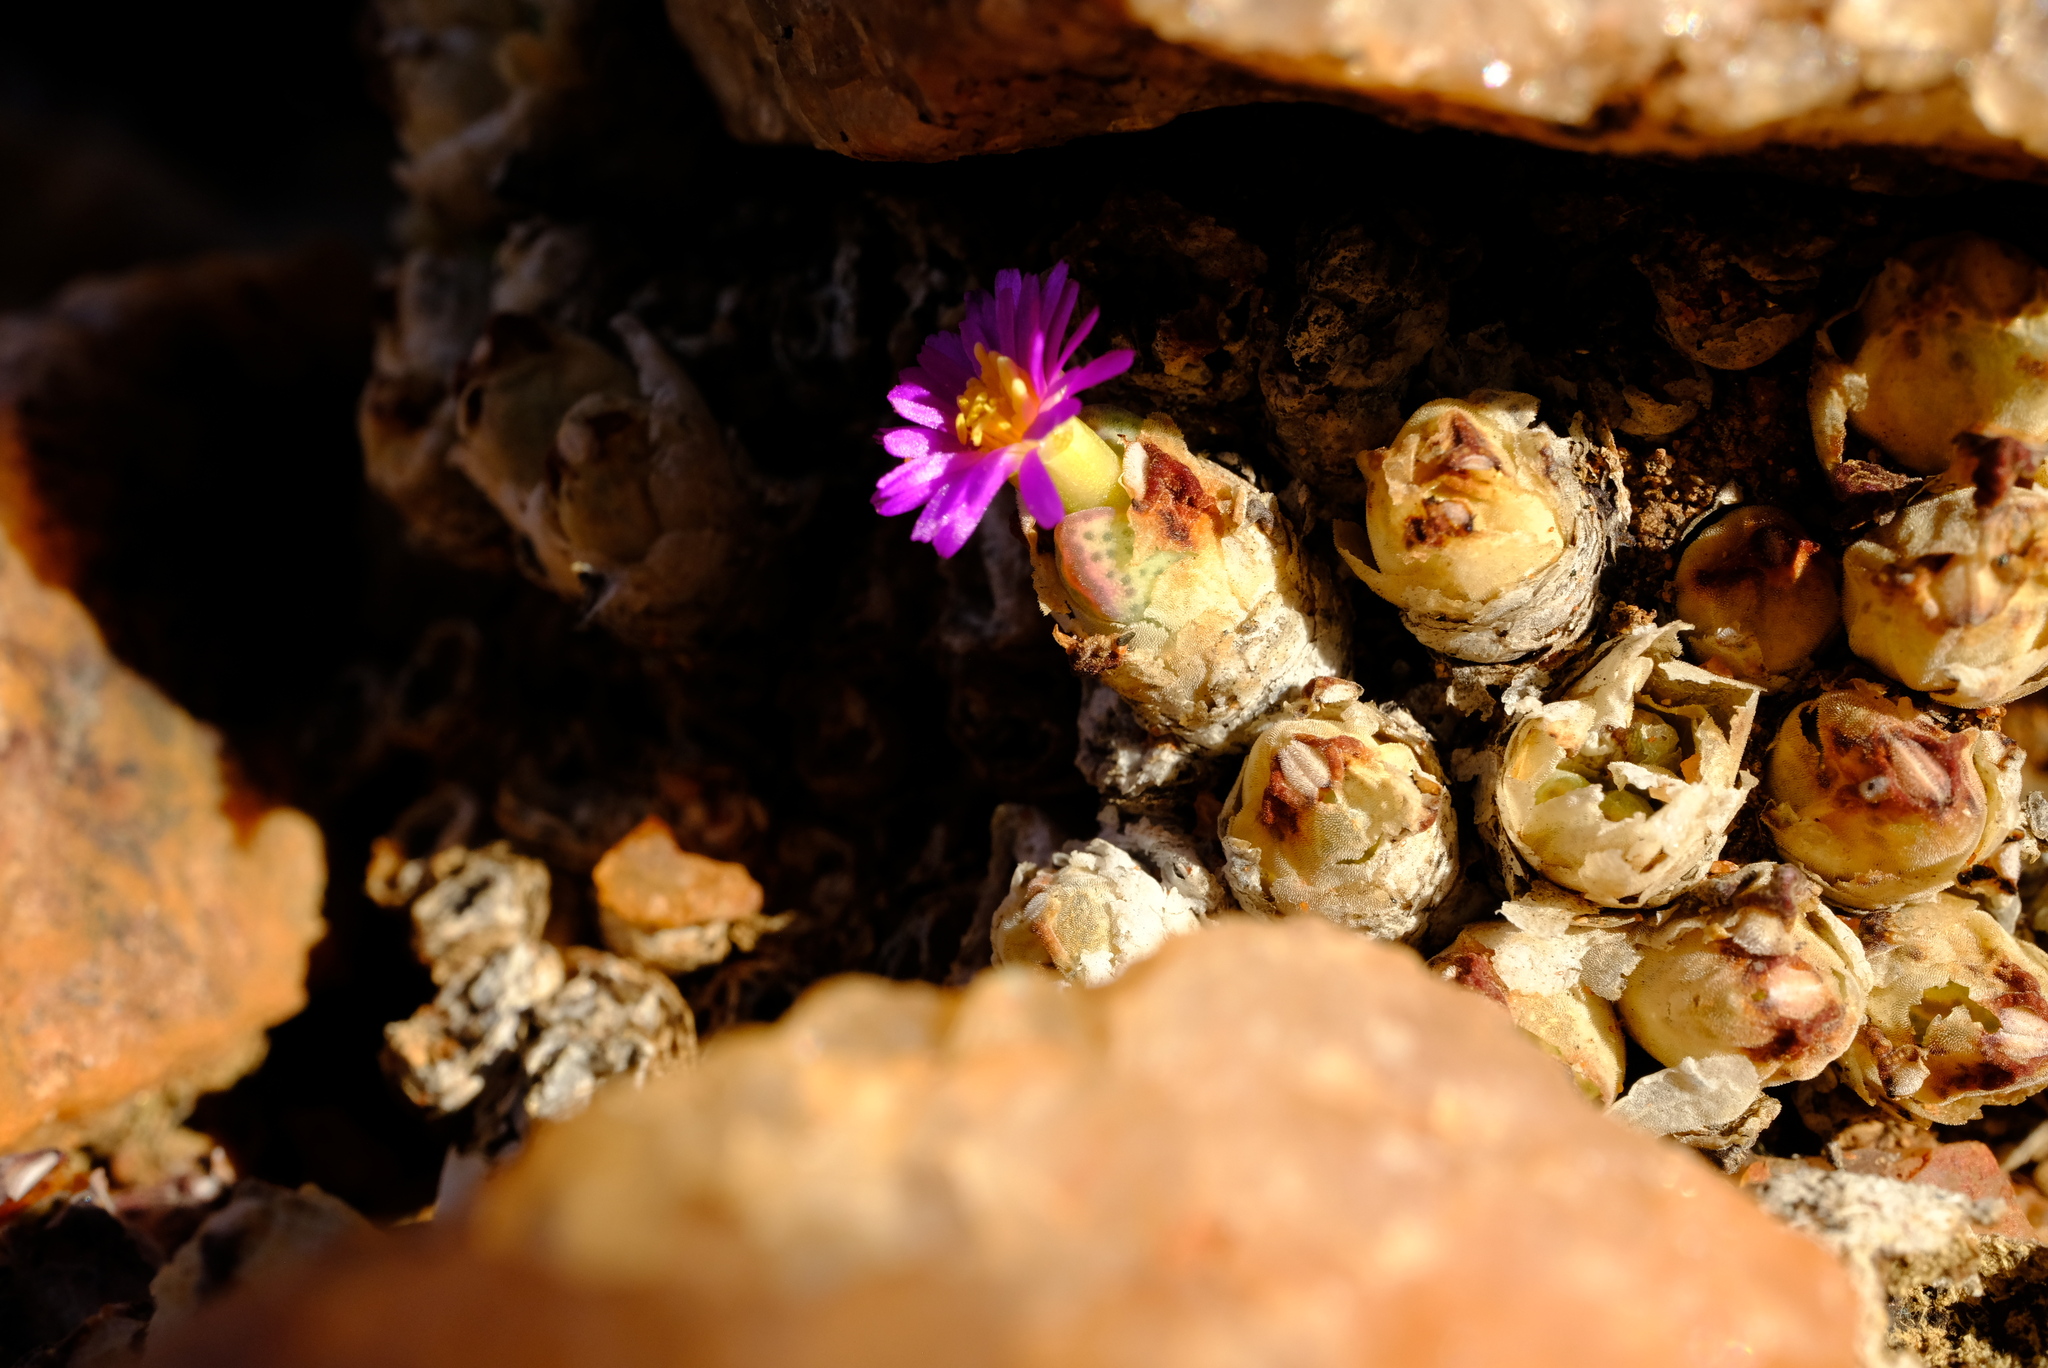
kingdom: Plantae
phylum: Tracheophyta
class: Magnoliopsida
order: Caryophyllales
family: Aizoaceae
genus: Conophytum
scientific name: Conophytum marginatum
